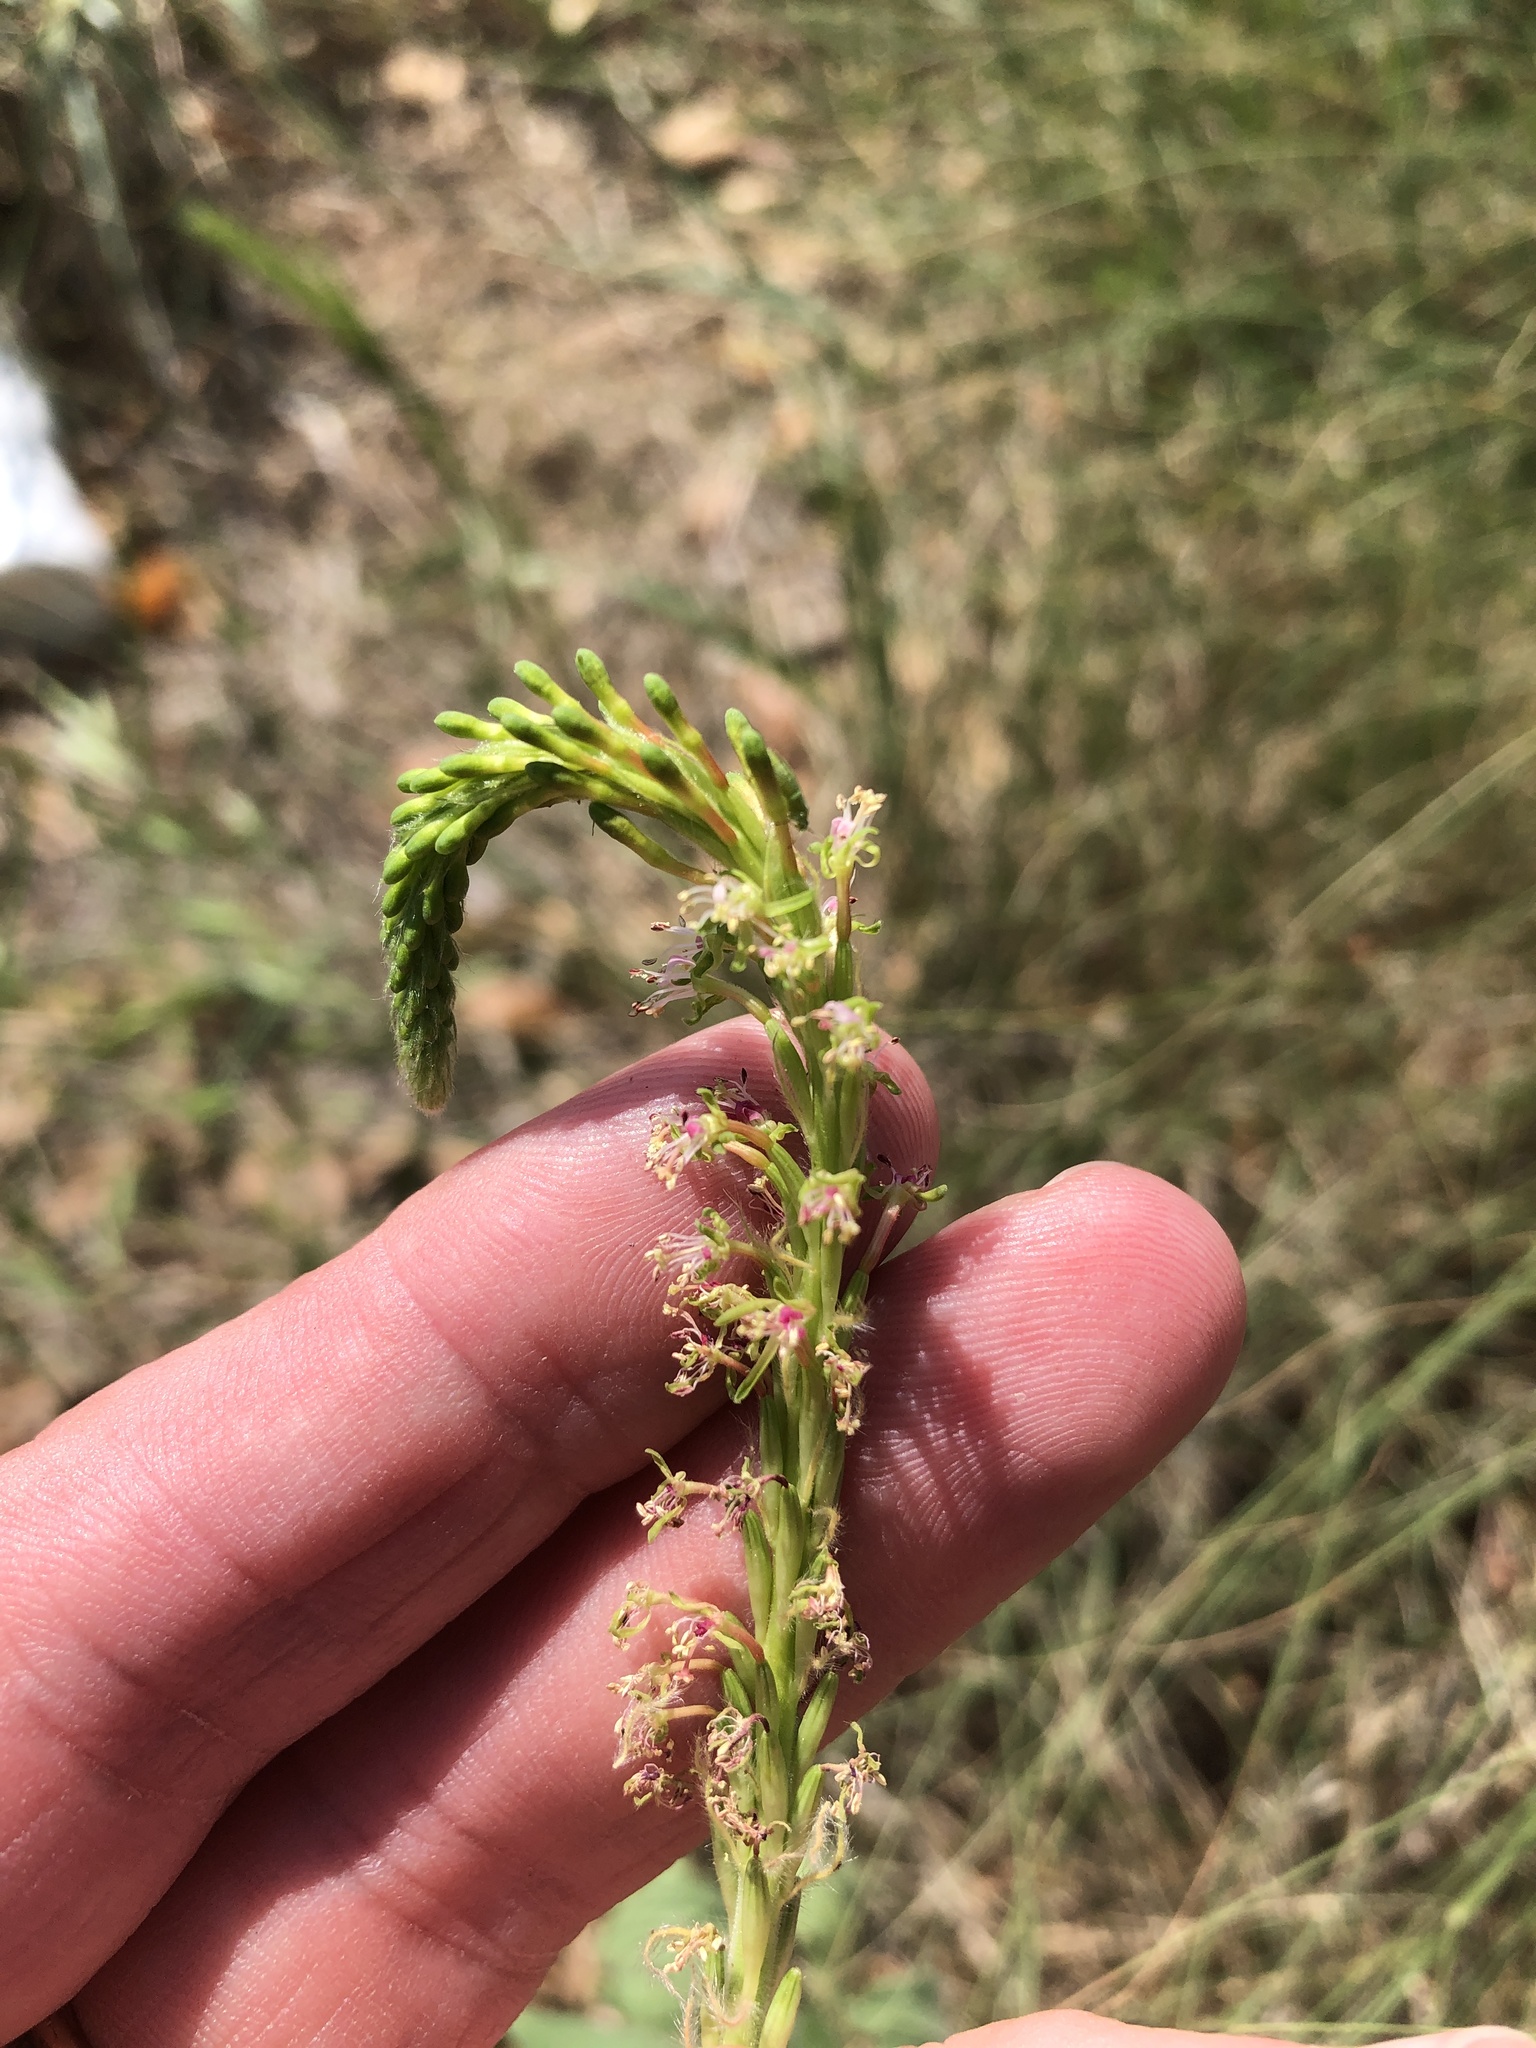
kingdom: Plantae
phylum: Tracheophyta
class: Magnoliopsida
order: Myrtales
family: Onagraceae
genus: Oenothera
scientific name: Oenothera curtiflora
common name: Velvetweed
